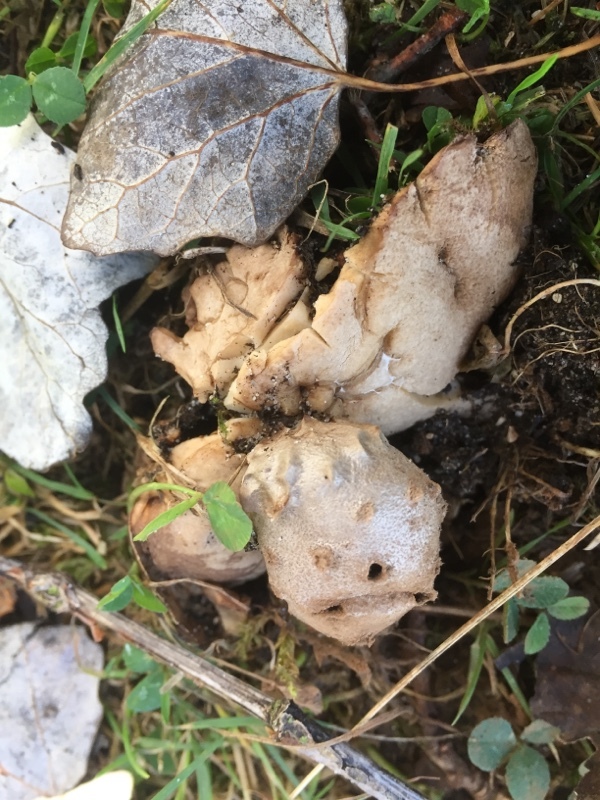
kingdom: Fungi
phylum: Basidiomycota
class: Agaricomycetes
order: Geastrales
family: Geastraceae
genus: Myriostoma
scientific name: Myriostoma coliforme
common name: Pepper pot
